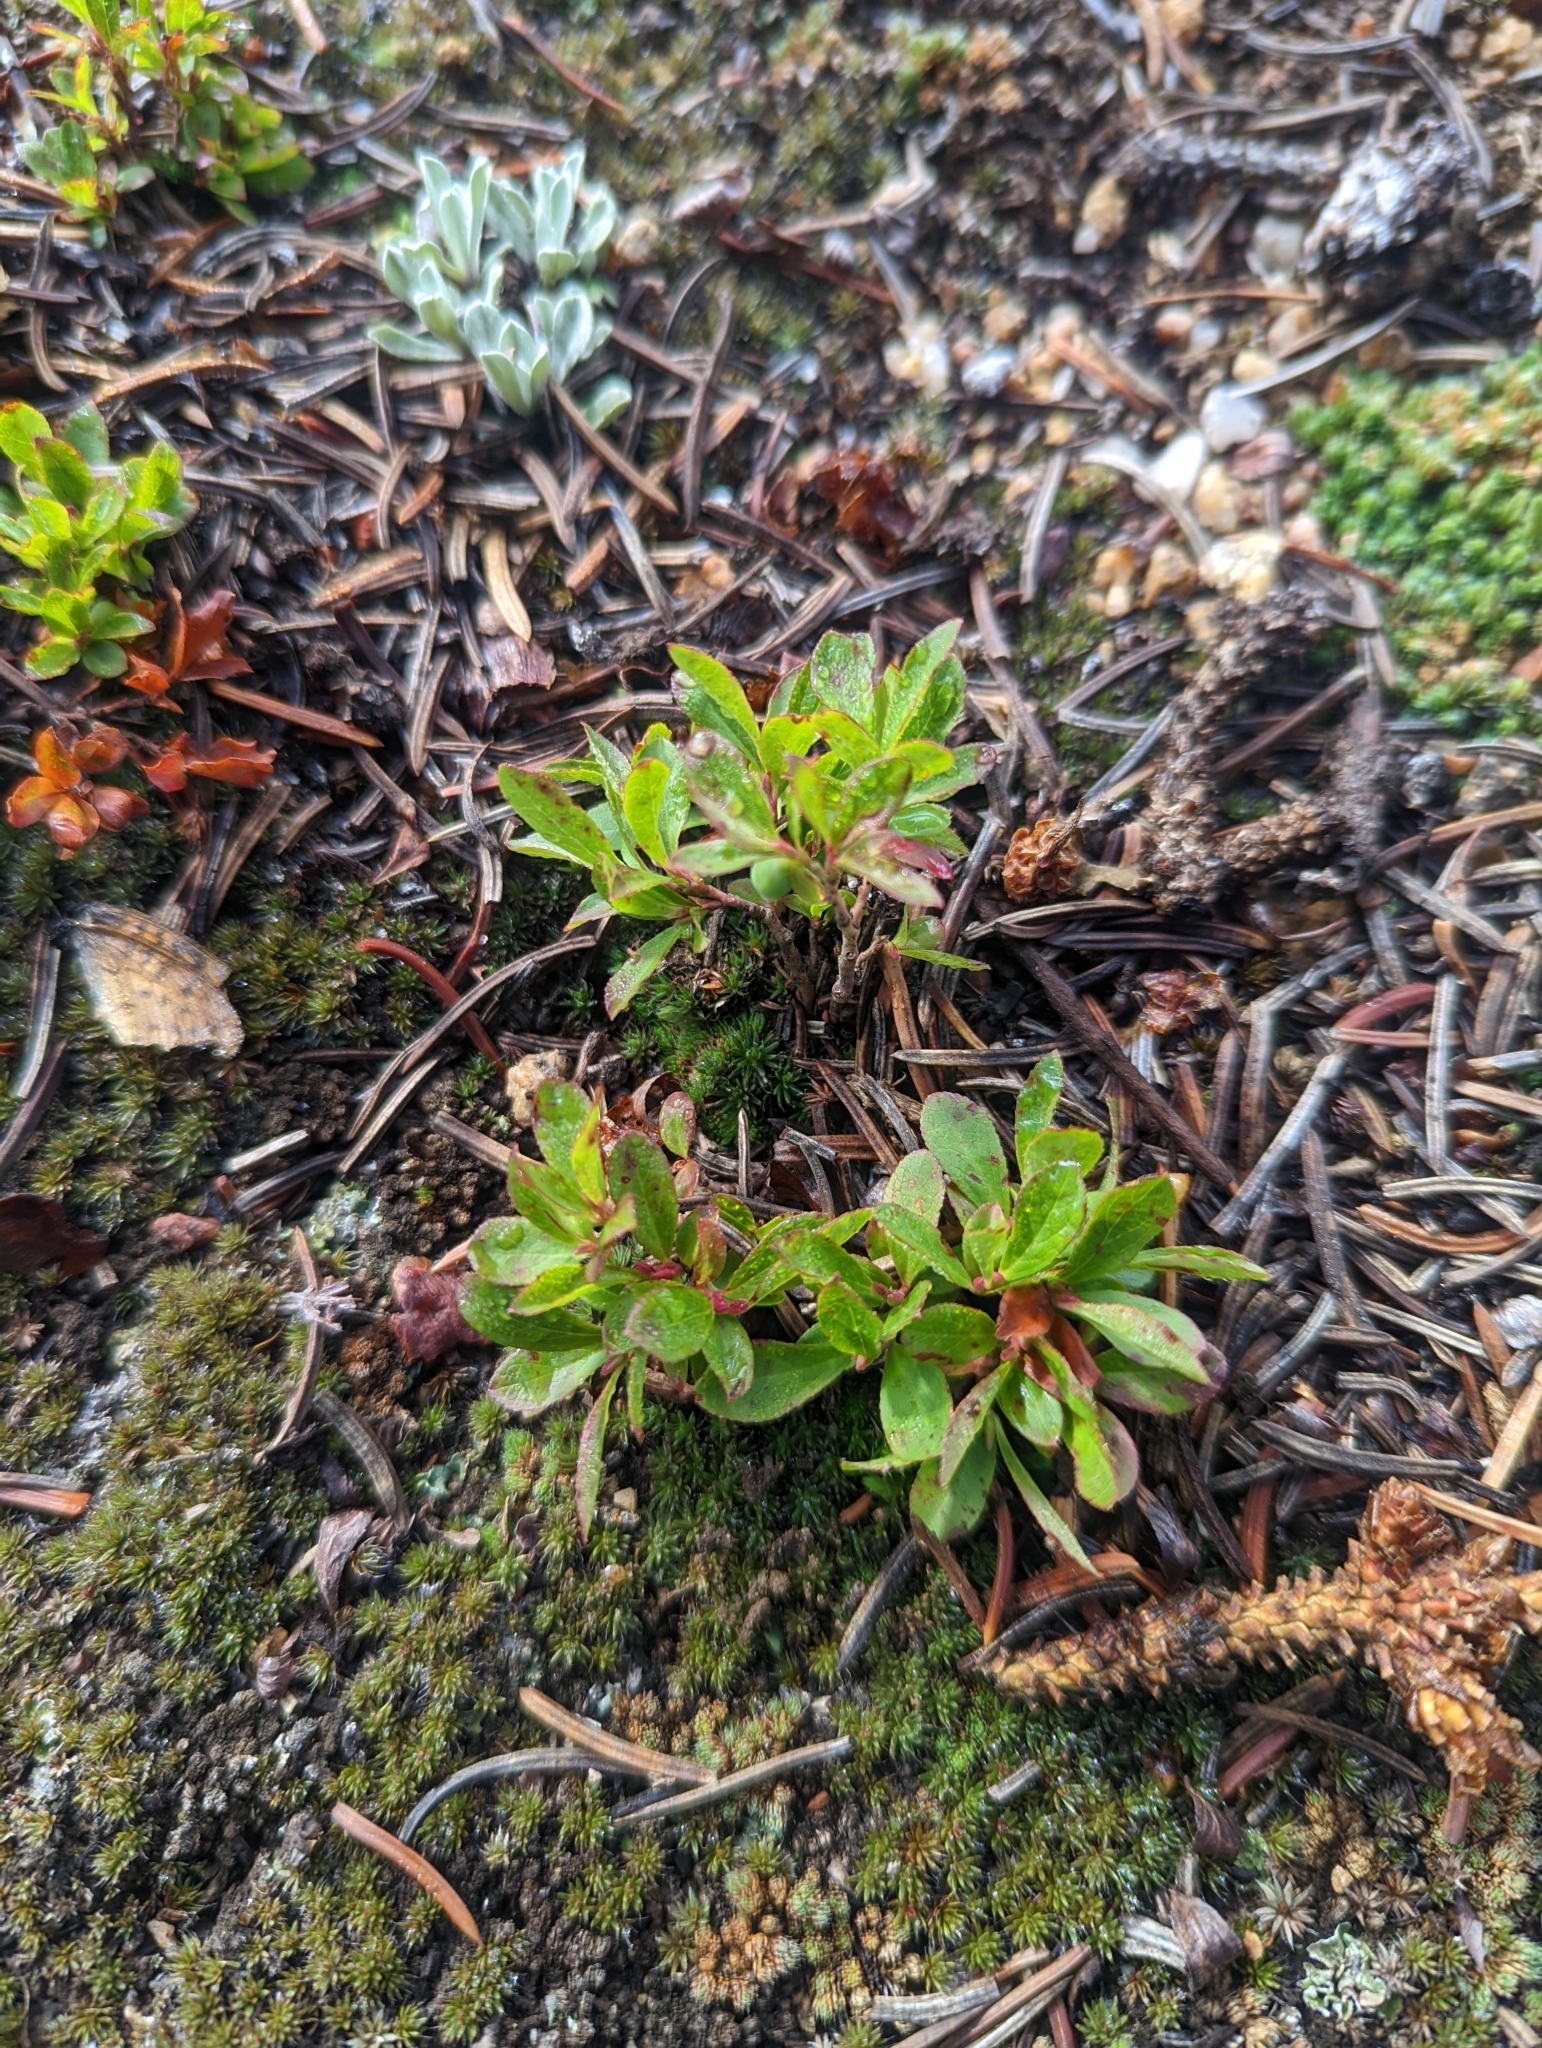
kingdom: Plantae
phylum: Tracheophyta
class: Magnoliopsida
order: Ericales
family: Ericaceae
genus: Vaccinium
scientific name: Vaccinium cespitosum
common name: Dwarf bilberry
